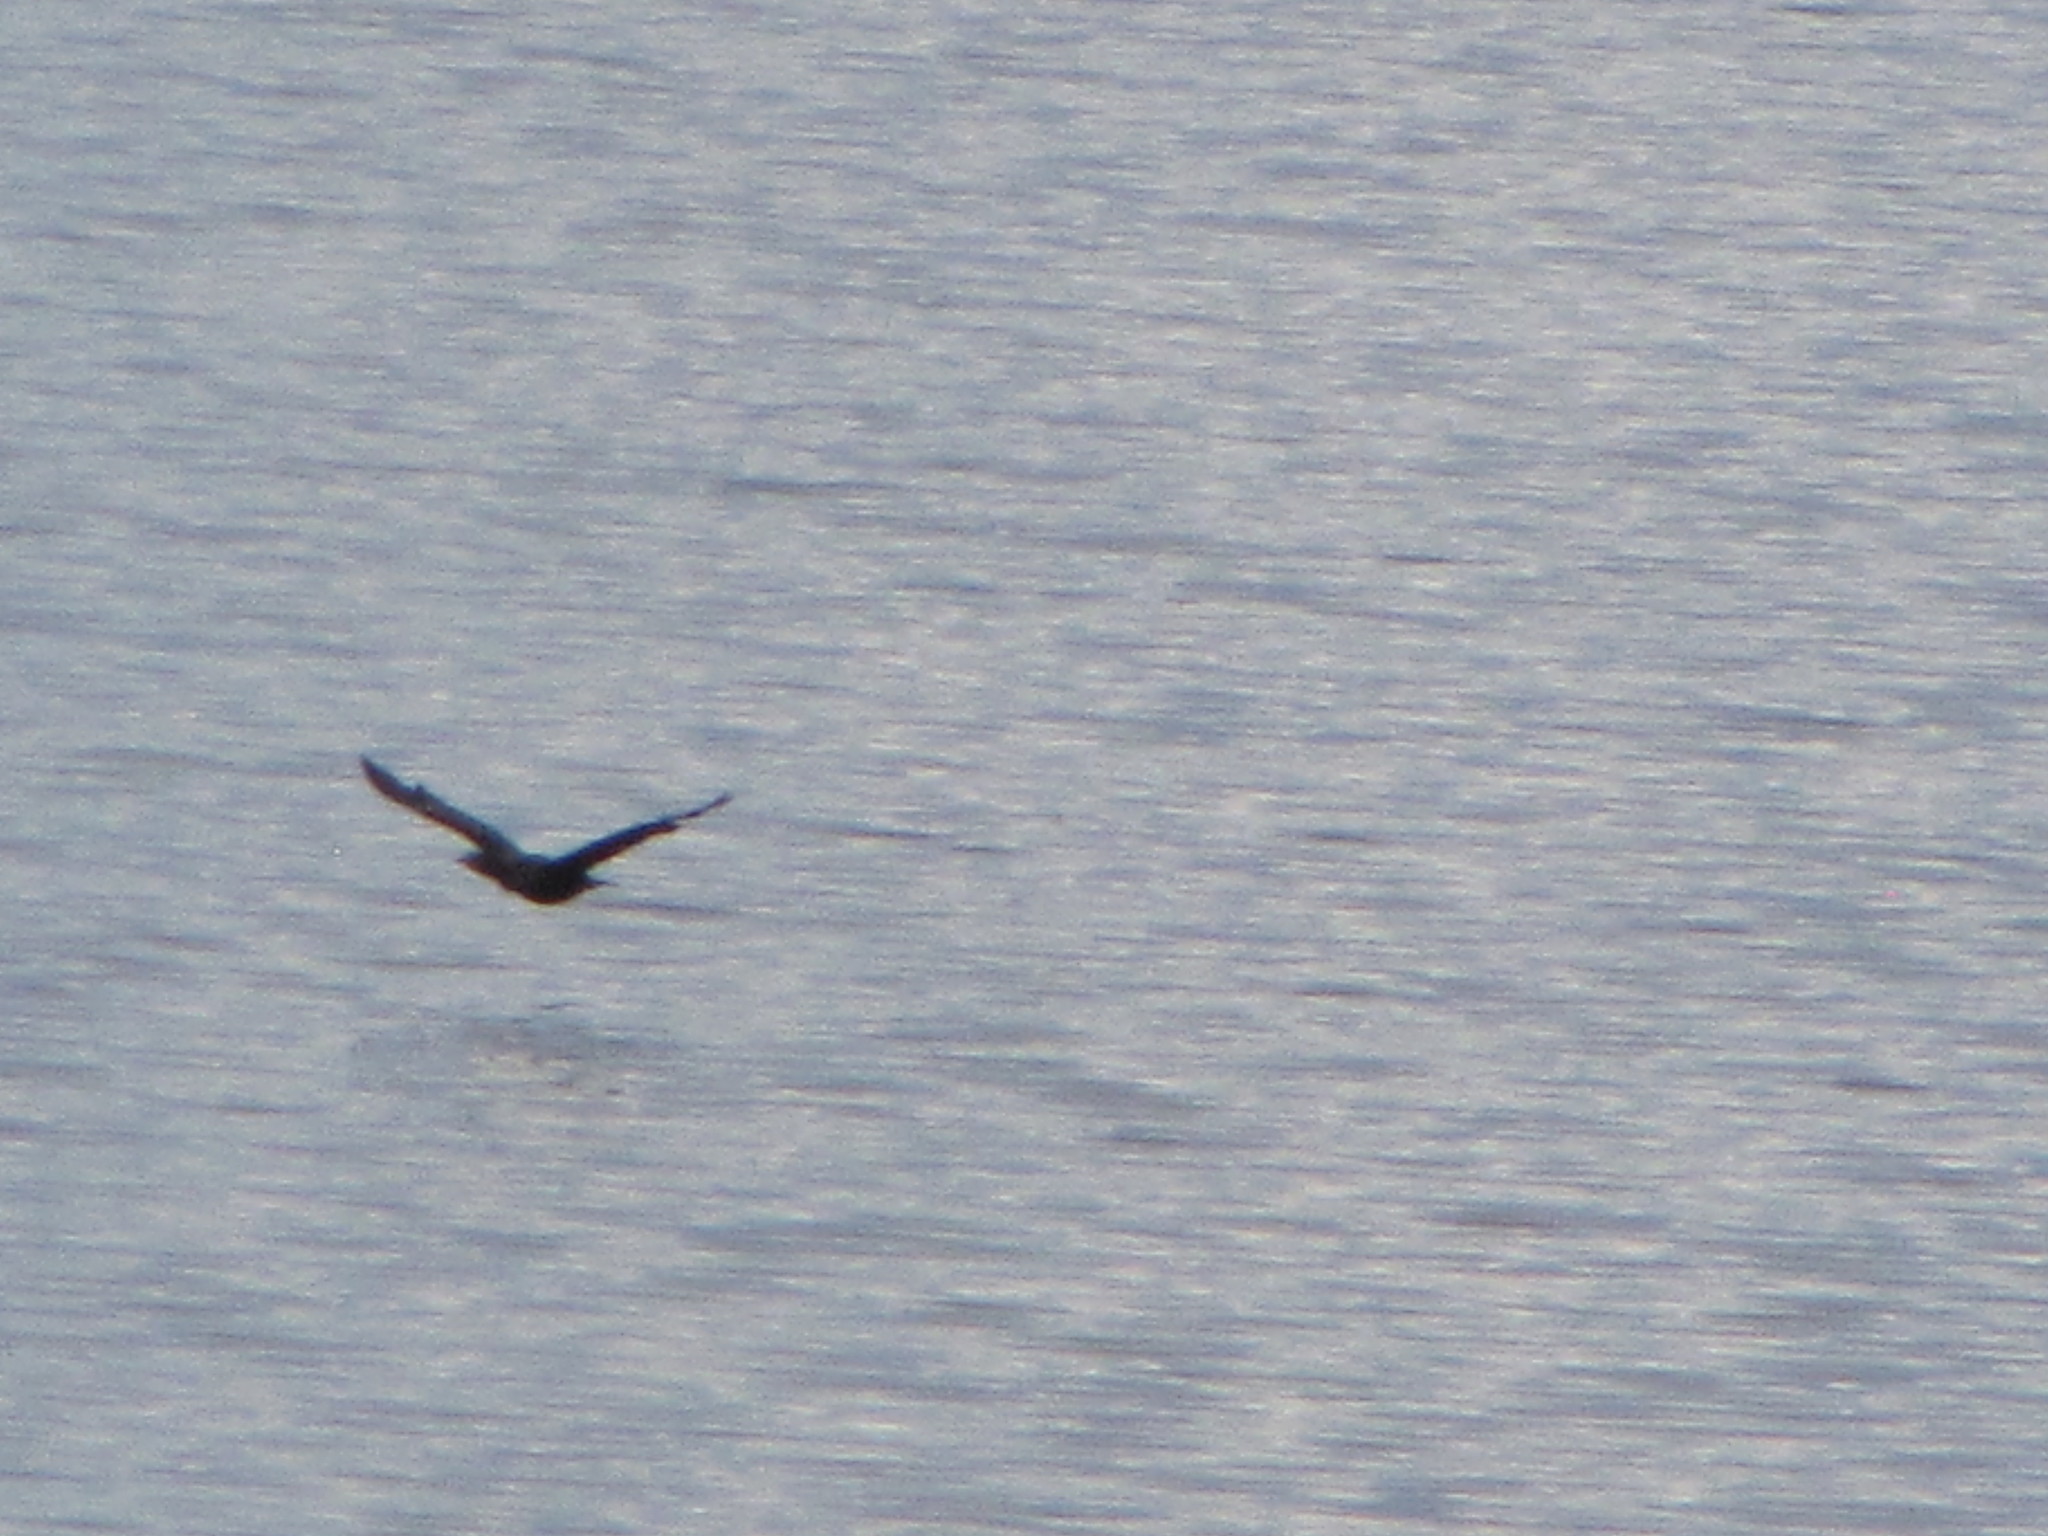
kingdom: Animalia
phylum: Chordata
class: Aves
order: Suliformes
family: Phalacrocoracidae
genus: Phalacrocorax
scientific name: Phalacrocorax auritus
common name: Double-crested cormorant
